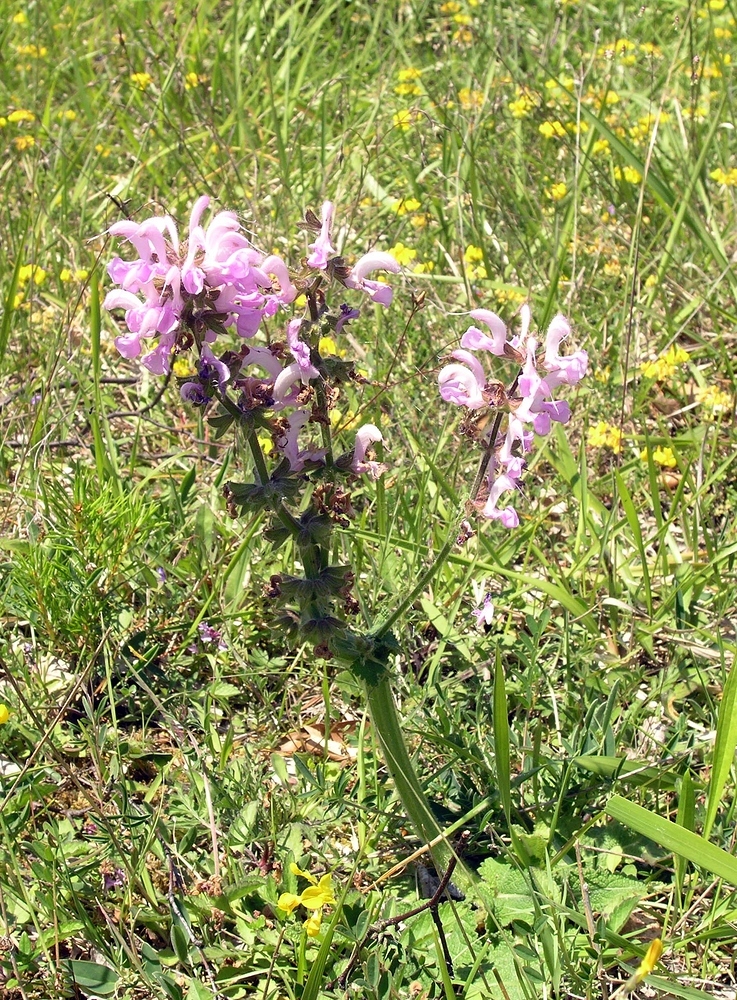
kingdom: Plantae
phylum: Tracheophyta
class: Magnoliopsida
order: Lamiales
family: Lamiaceae
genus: Salvia
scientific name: Salvia pratensis
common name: Meadow sage
